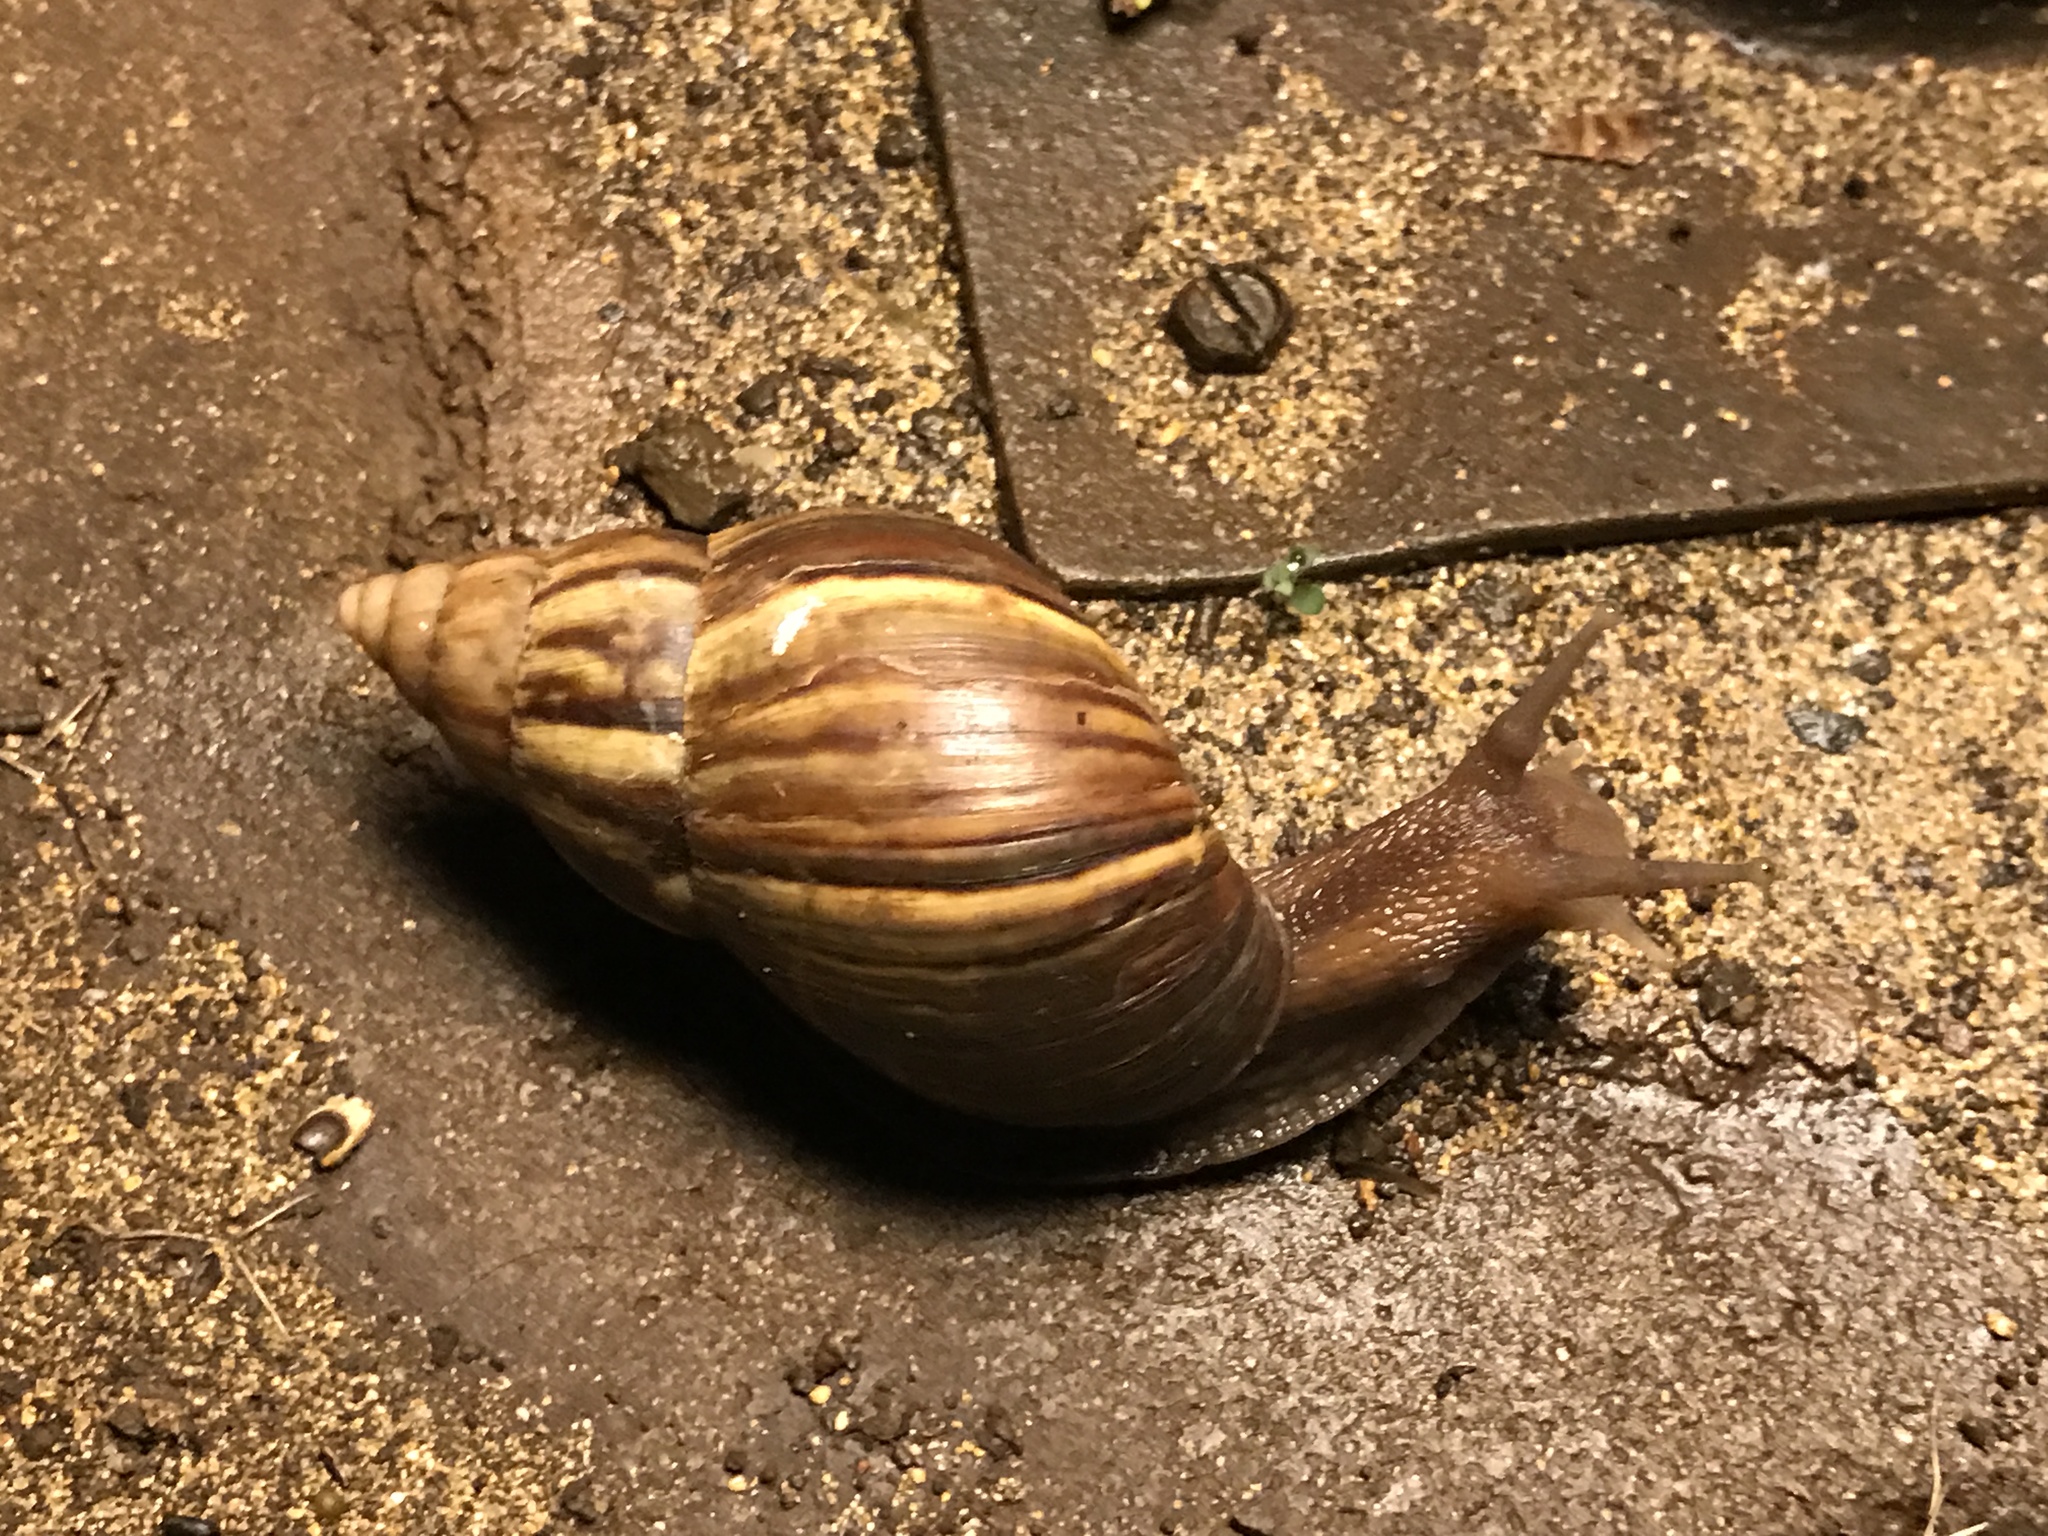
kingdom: Animalia
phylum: Mollusca
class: Gastropoda
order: Stylommatophora
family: Achatinidae
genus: Lissachatina
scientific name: Lissachatina fulica
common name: Giant african snail
